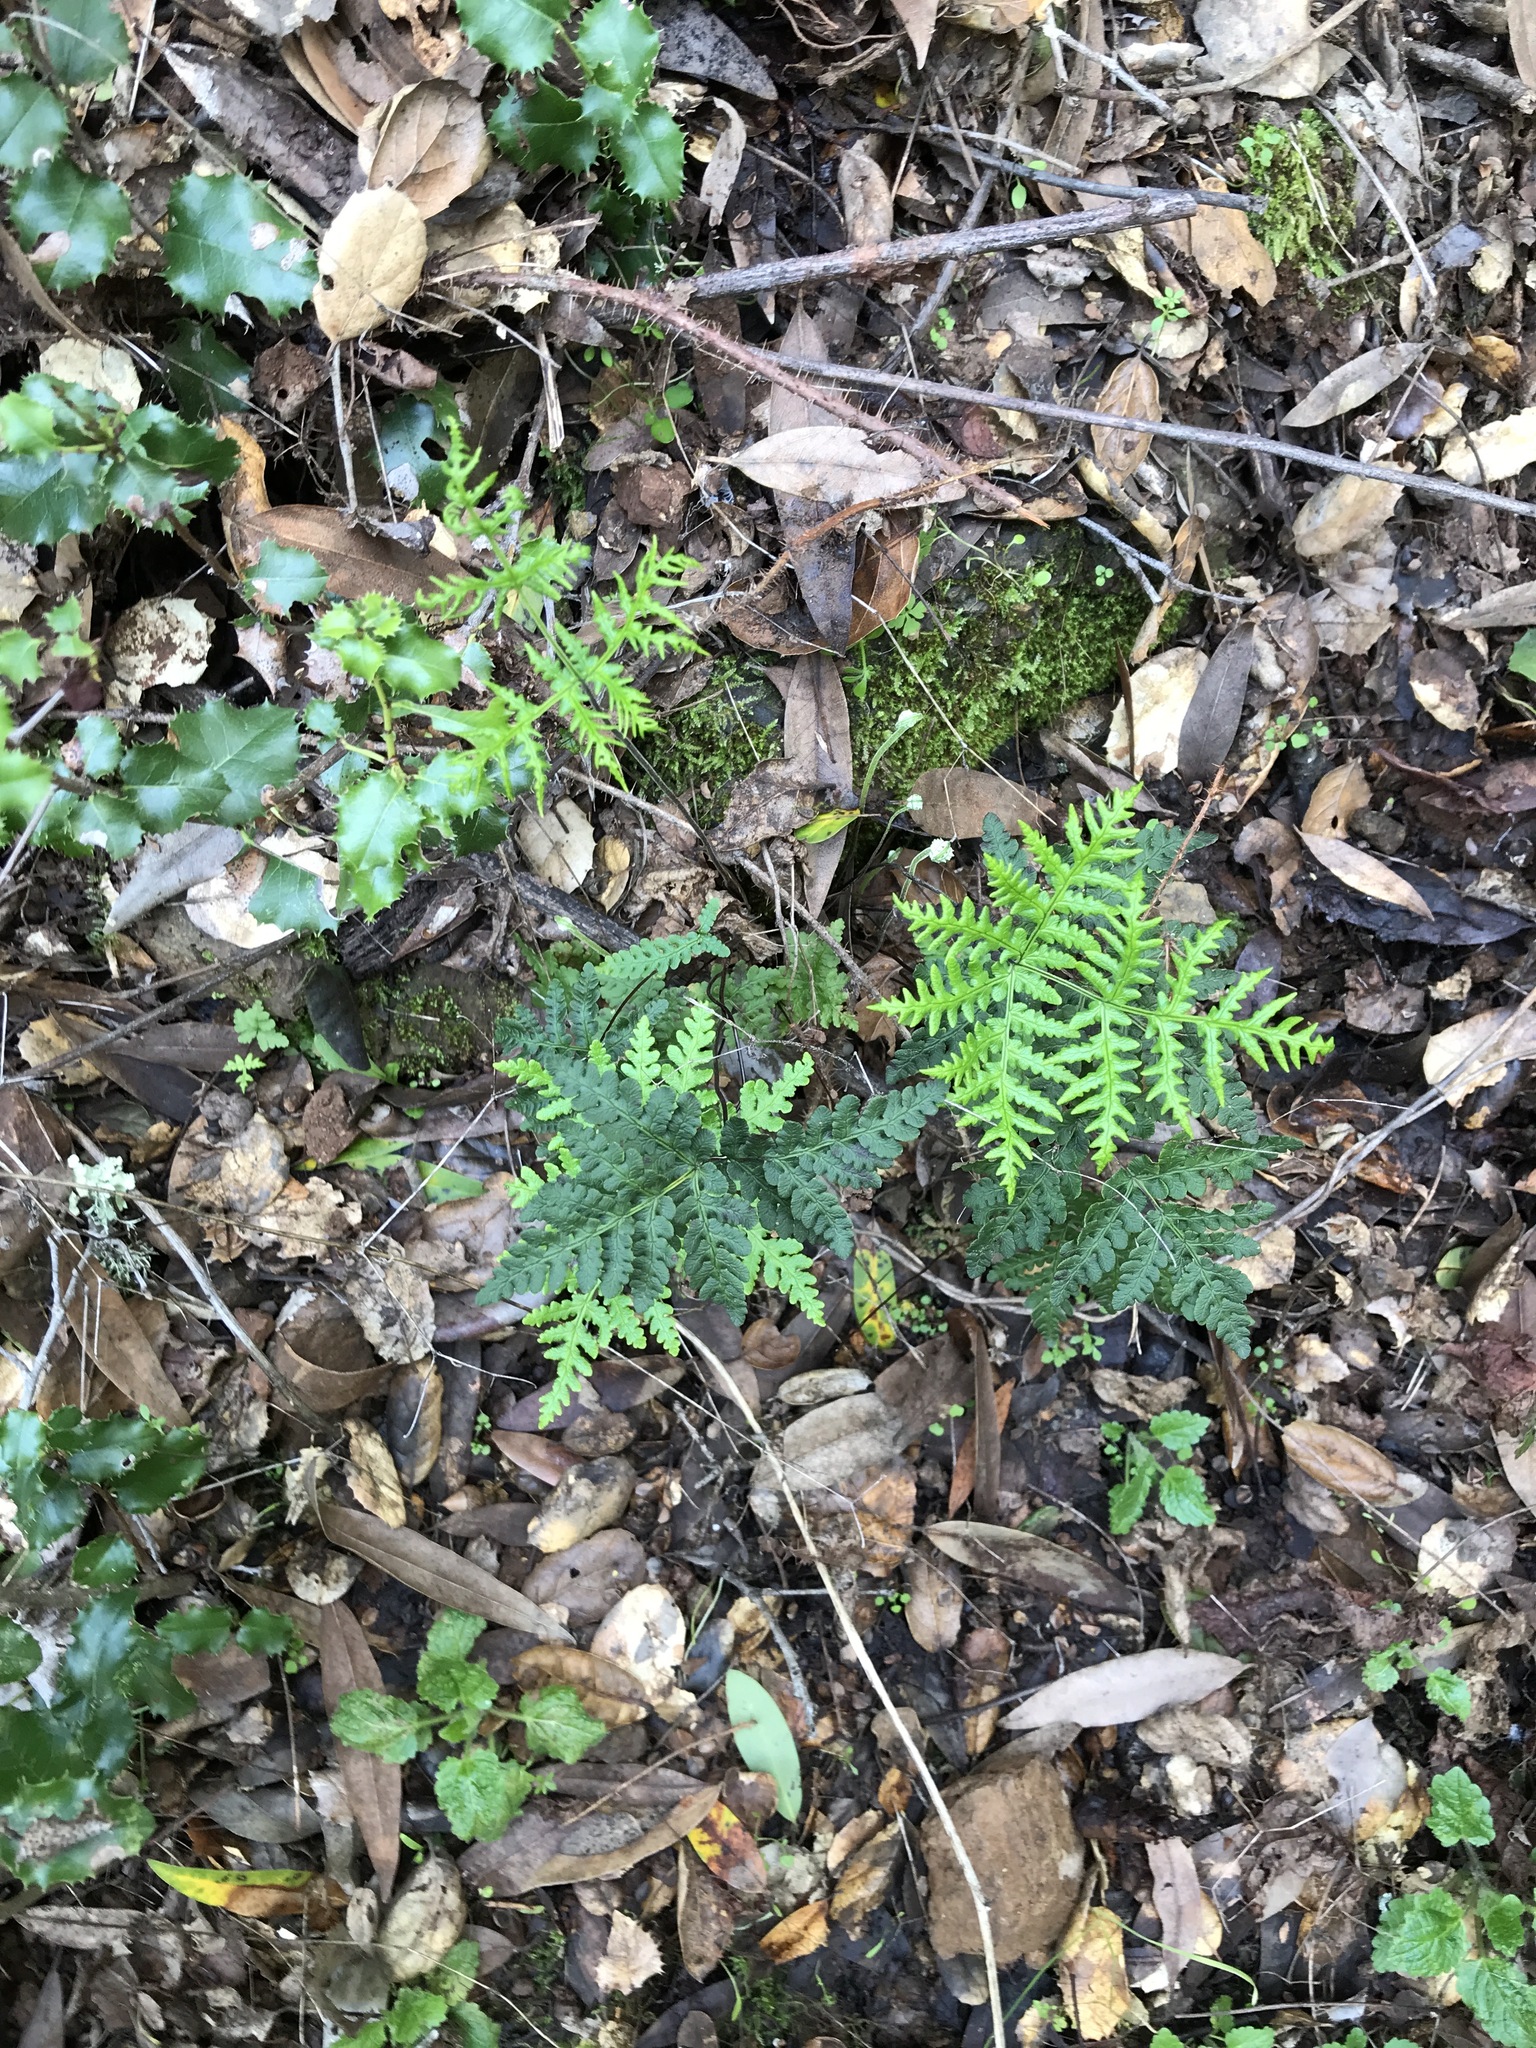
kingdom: Plantae
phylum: Tracheophyta
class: Polypodiopsida
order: Polypodiales
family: Pteridaceae
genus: Pentagramma
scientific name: Pentagramma triangularis
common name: Gold fern
